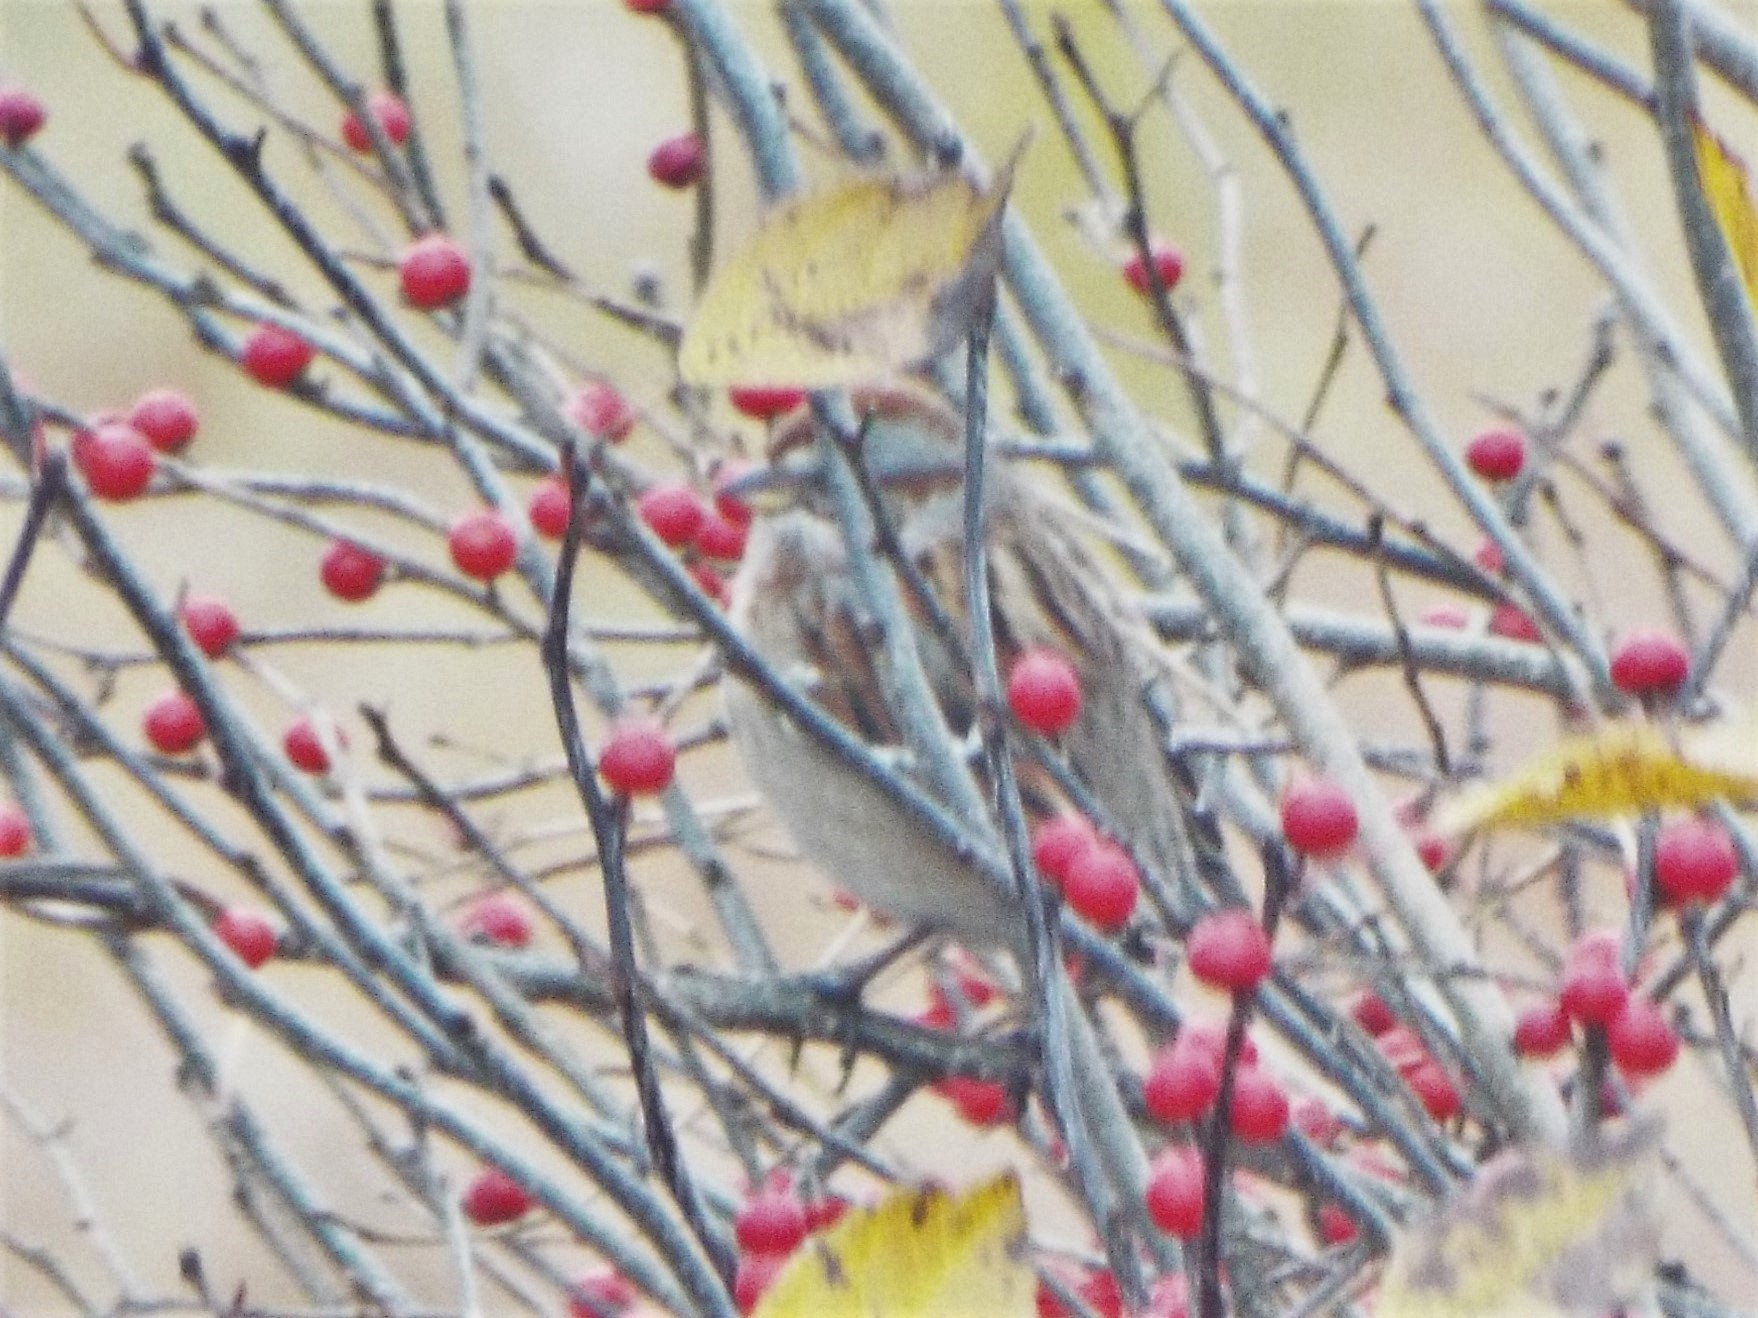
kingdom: Animalia
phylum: Chordata
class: Aves
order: Passeriformes
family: Passerellidae
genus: Spizelloides
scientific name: Spizelloides arborea
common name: American tree sparrow
